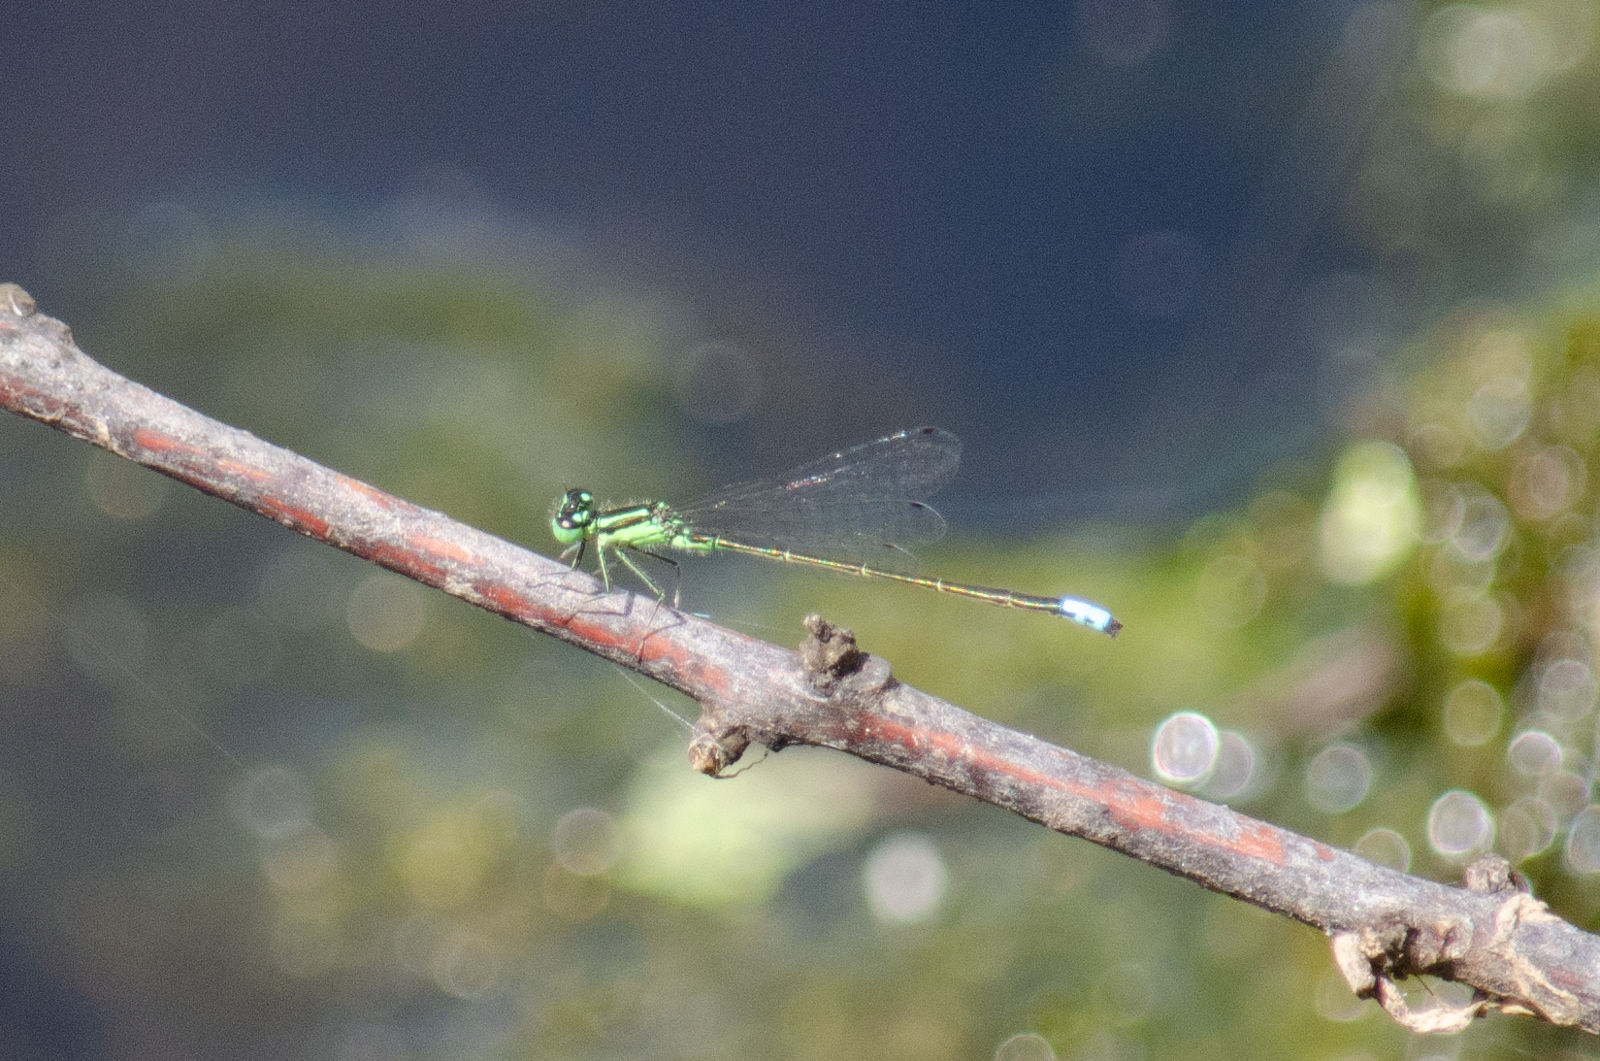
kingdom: Animalia
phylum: Arthropoda
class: Insecta
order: Odonata
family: Coenagrionidae
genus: Ischnura
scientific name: Ischnura verticalis
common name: Eastern forktail
